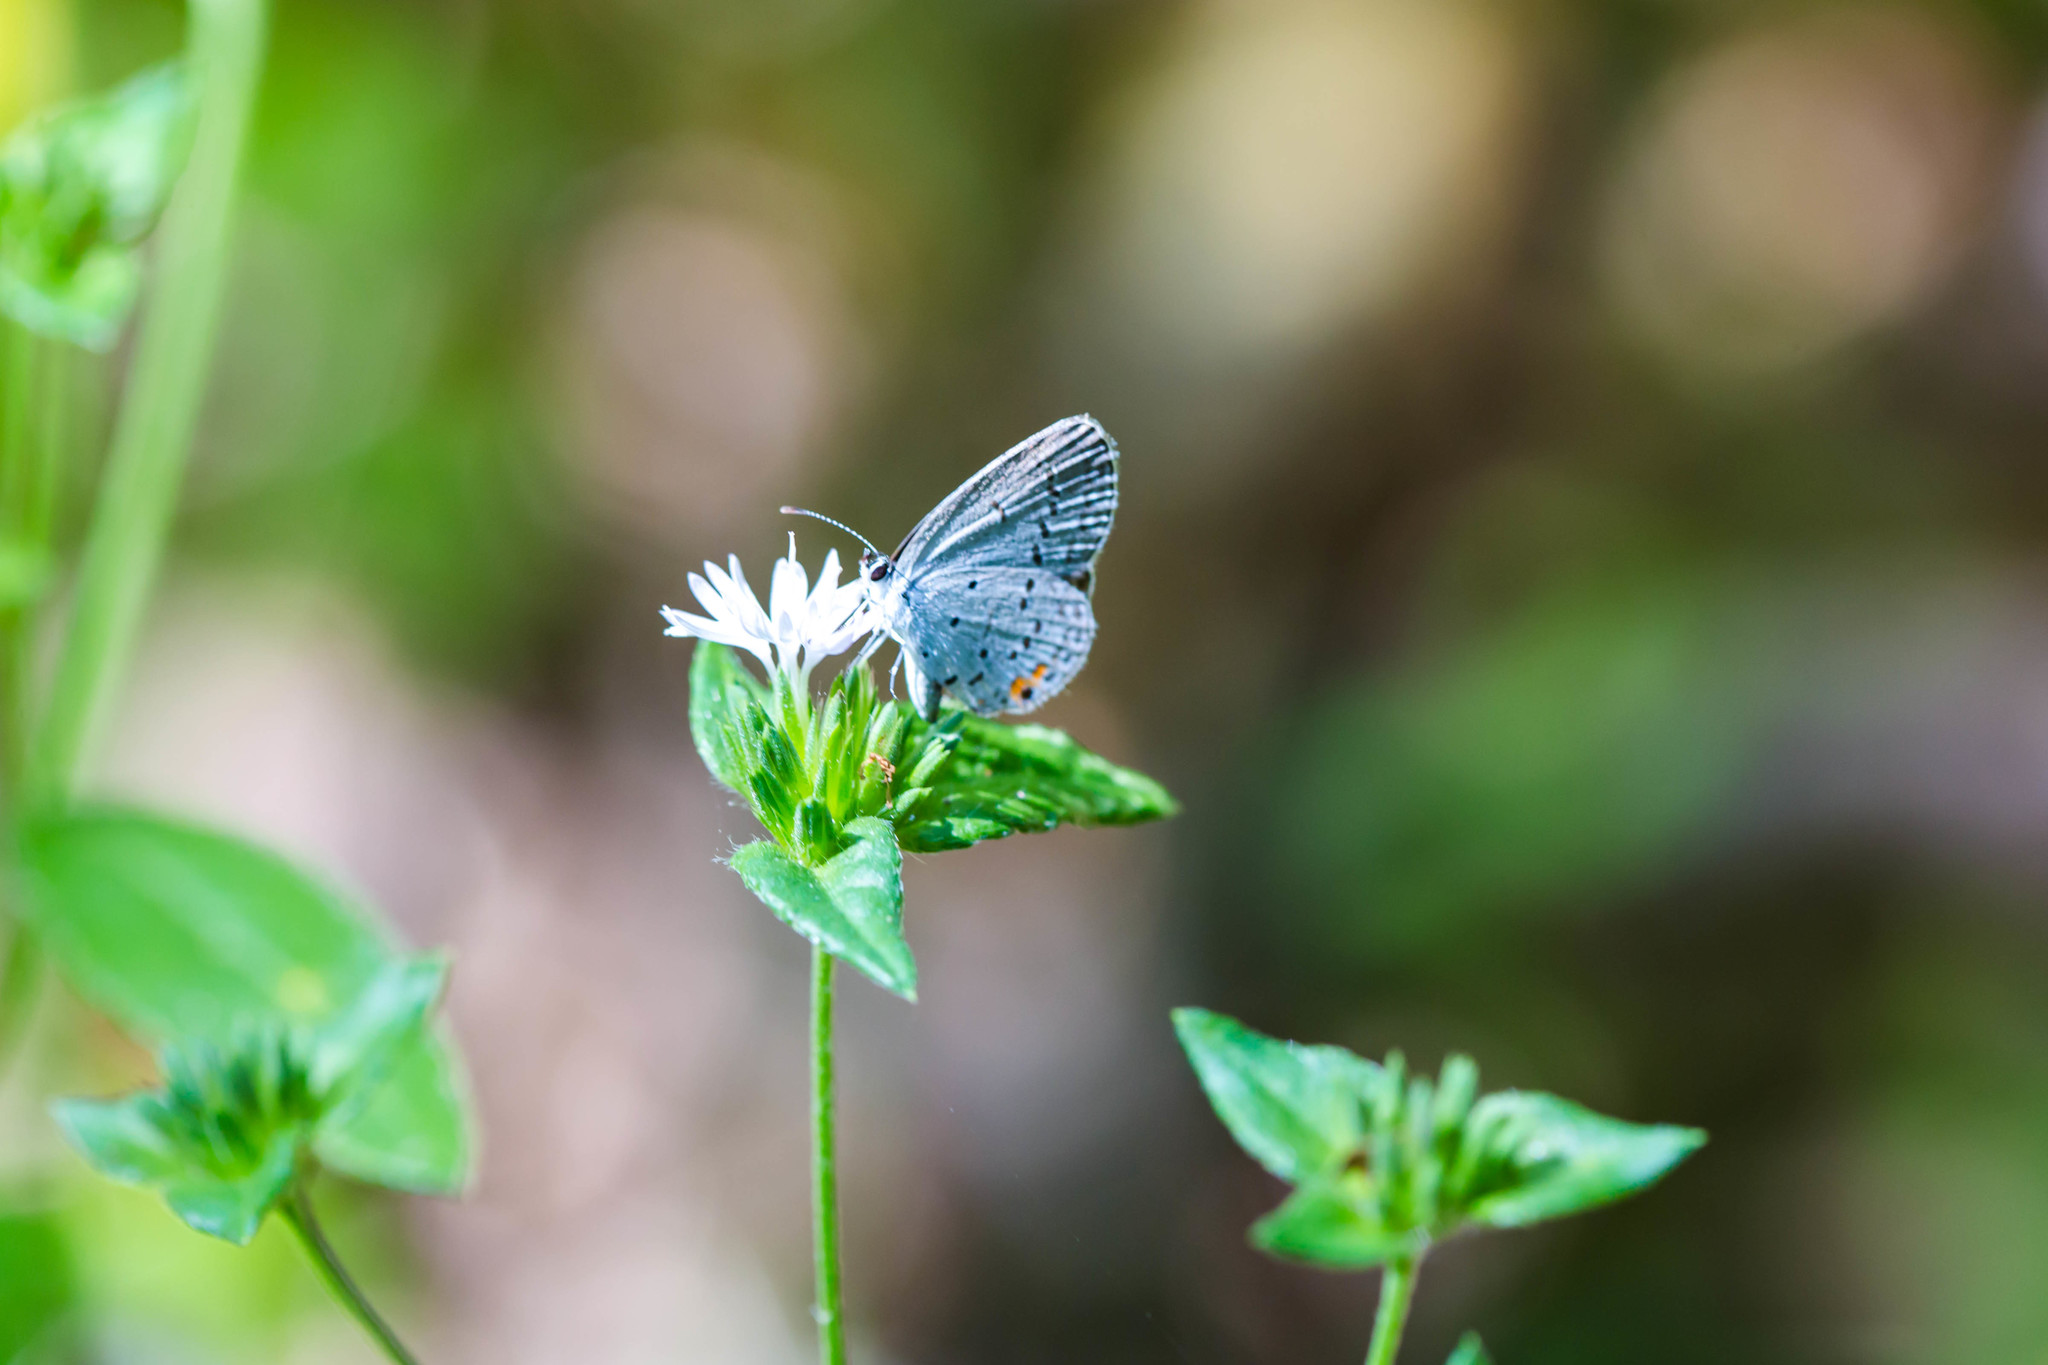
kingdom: Animalia
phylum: Arthropoda
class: Insecta
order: Lepidoptera
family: Lycaenidae
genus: Elkalyce
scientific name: Elkalyce comyntas
